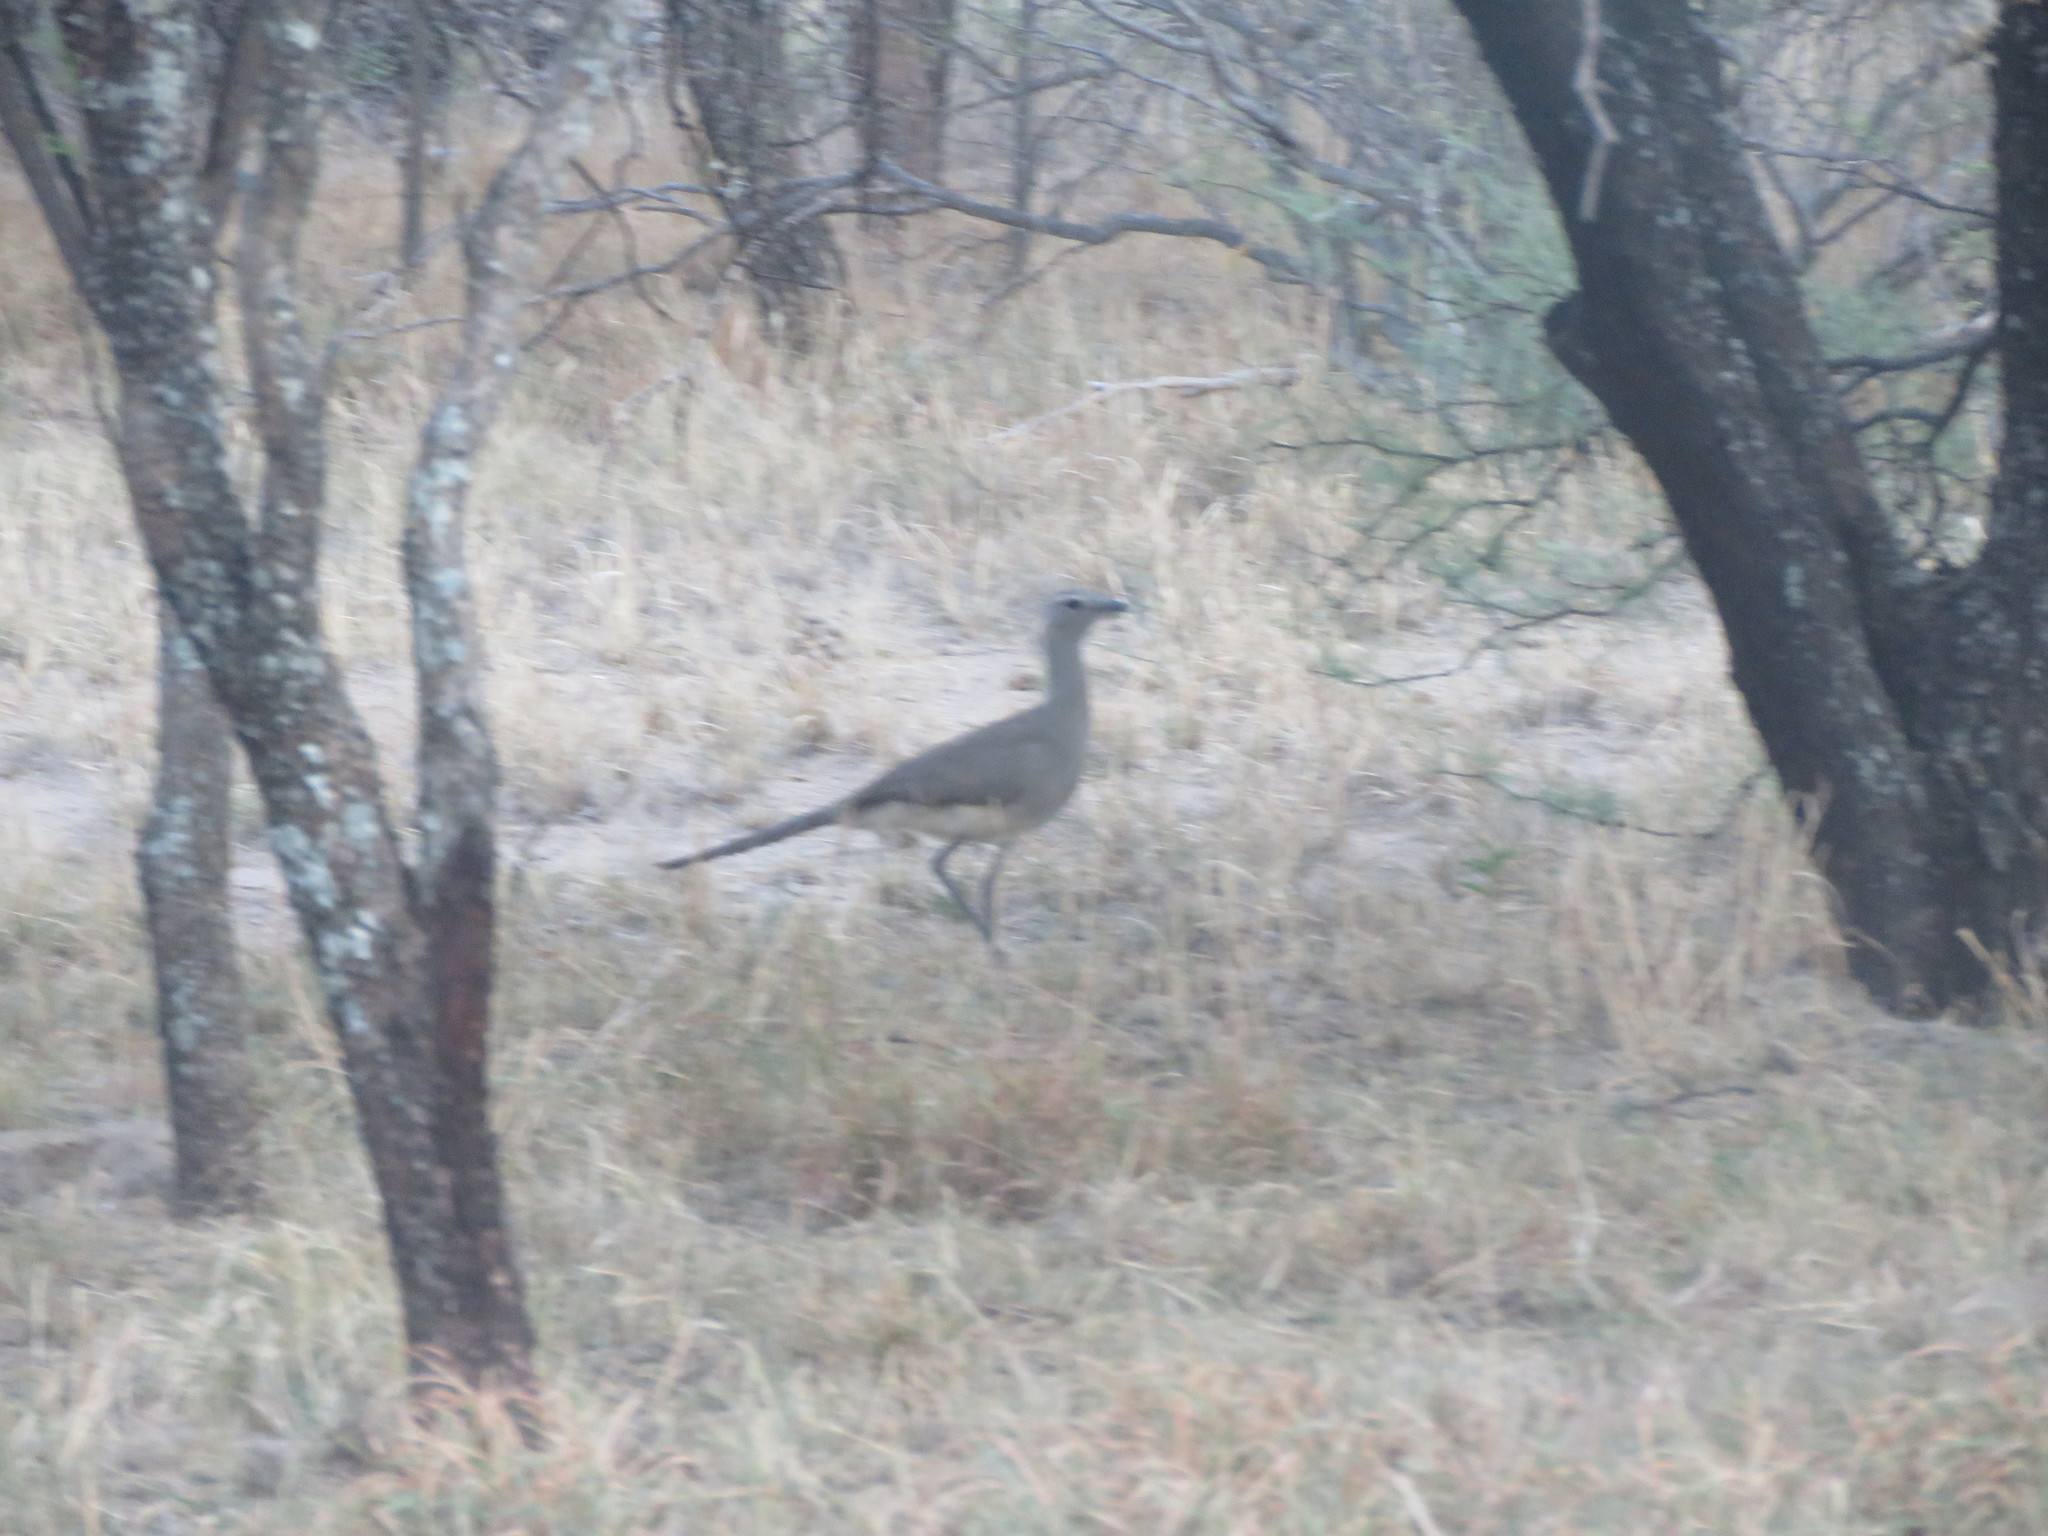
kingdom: Animalia
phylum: Chordata
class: Aves
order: Cariamiformes
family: Cariamidae
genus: Chunga
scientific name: Chunga burmeisteri
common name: Black-legged seriema
